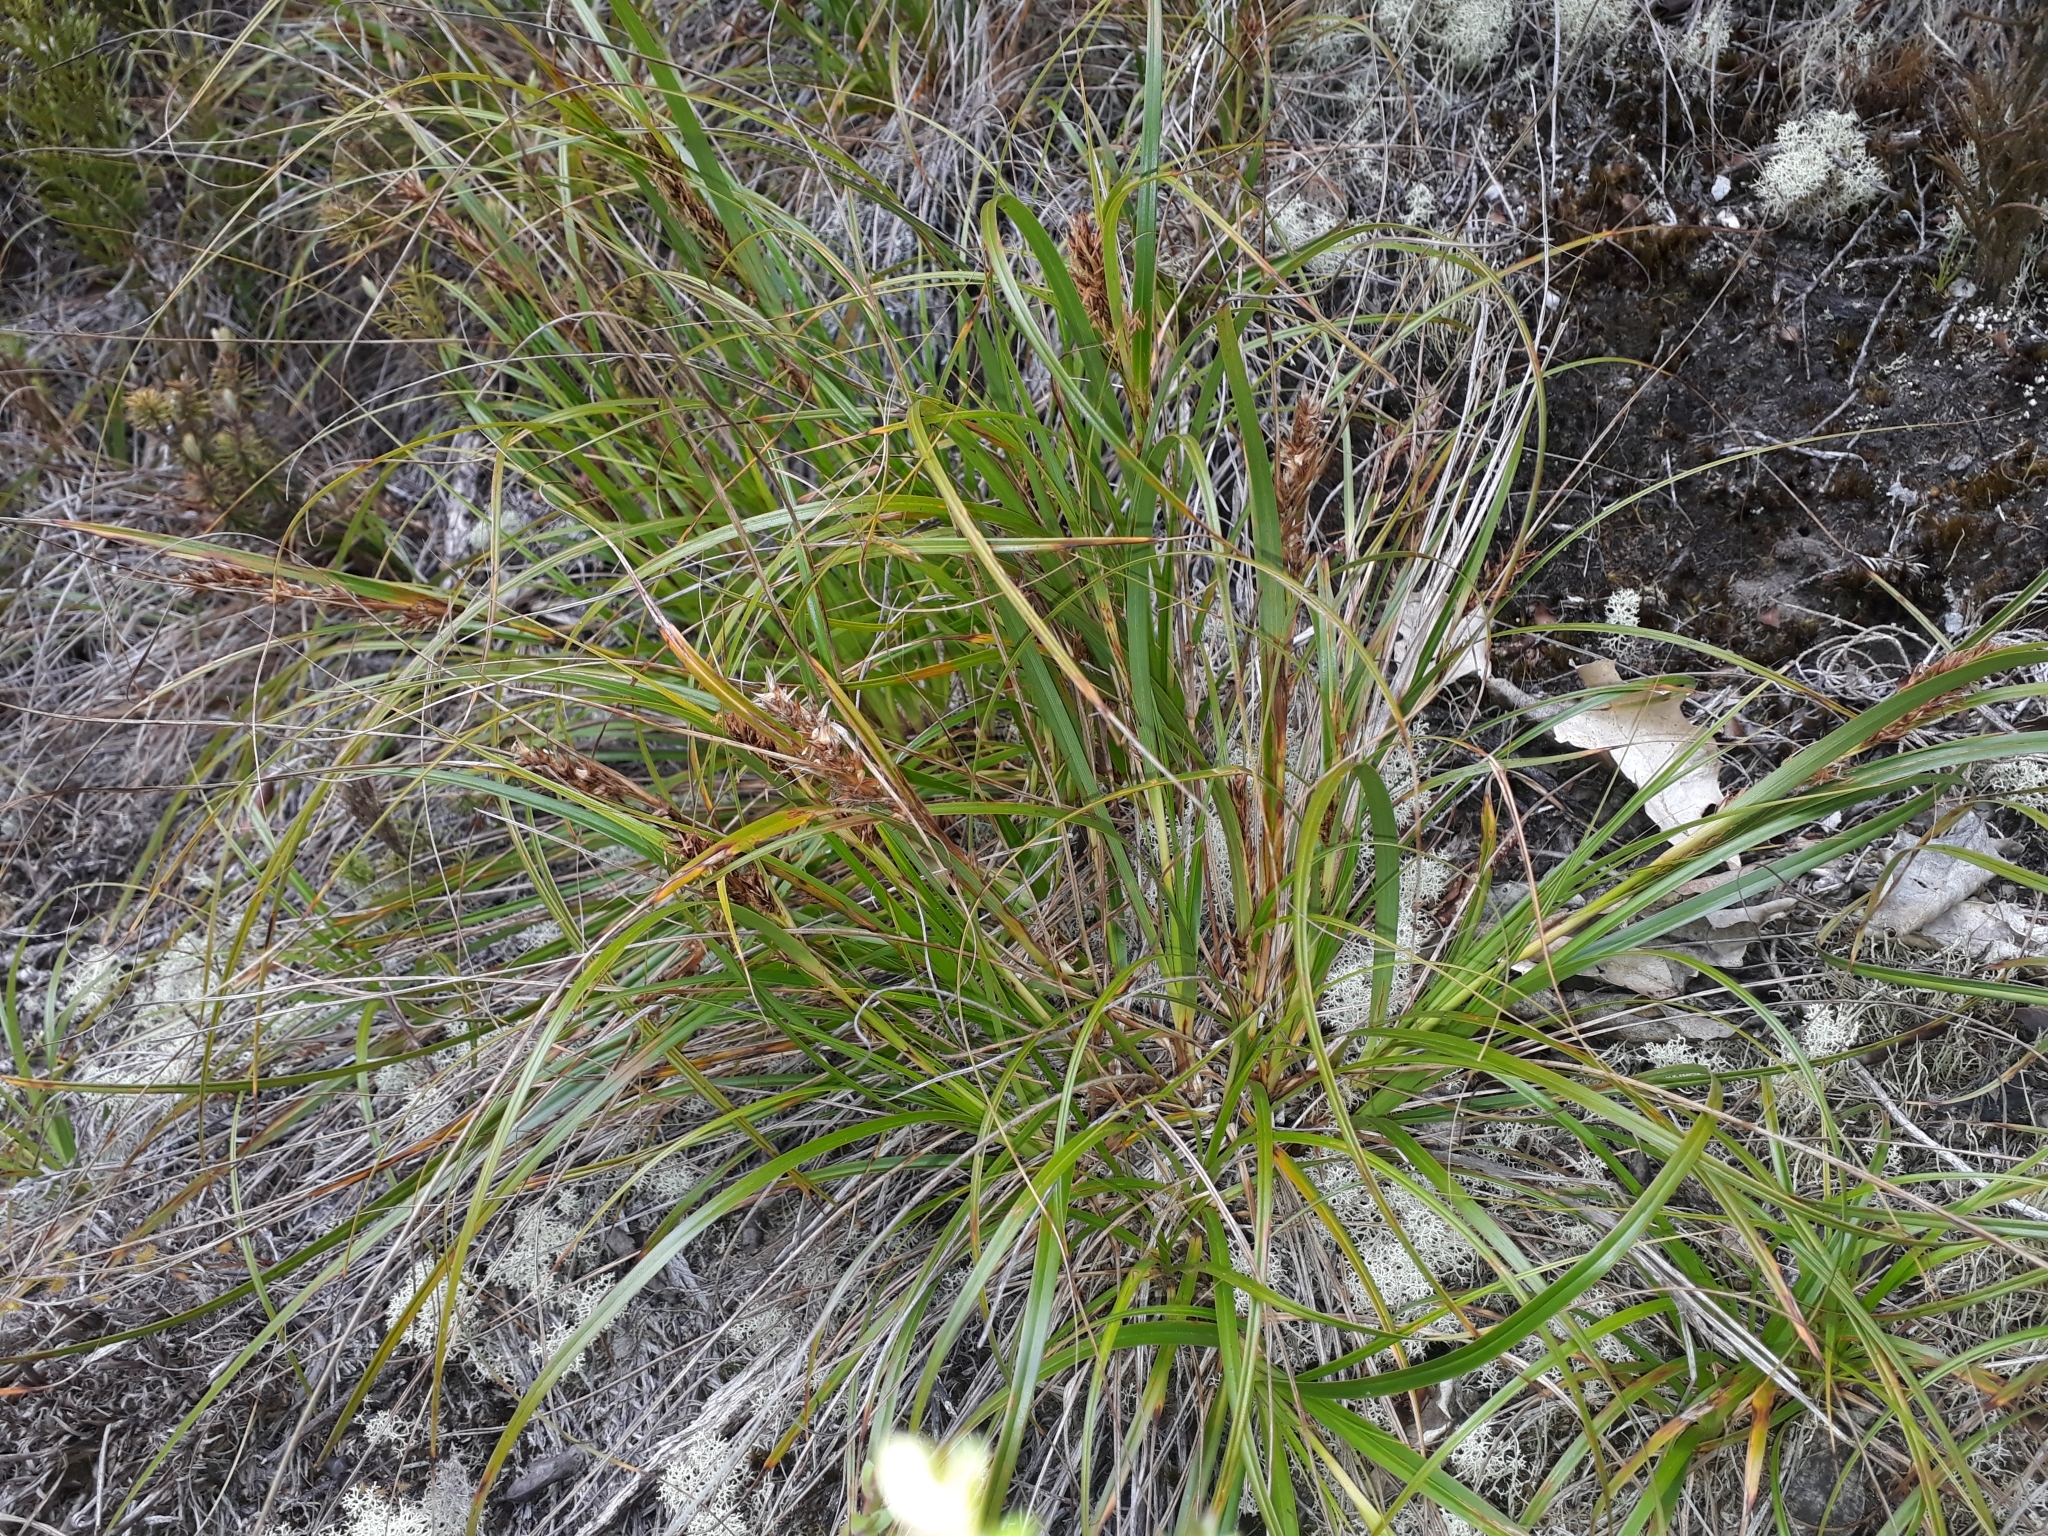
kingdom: Plantae
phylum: Tracheophyta
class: Liliopsida
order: Poales
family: Cyperaceae
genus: Morelotia
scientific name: Morelotia affinis
